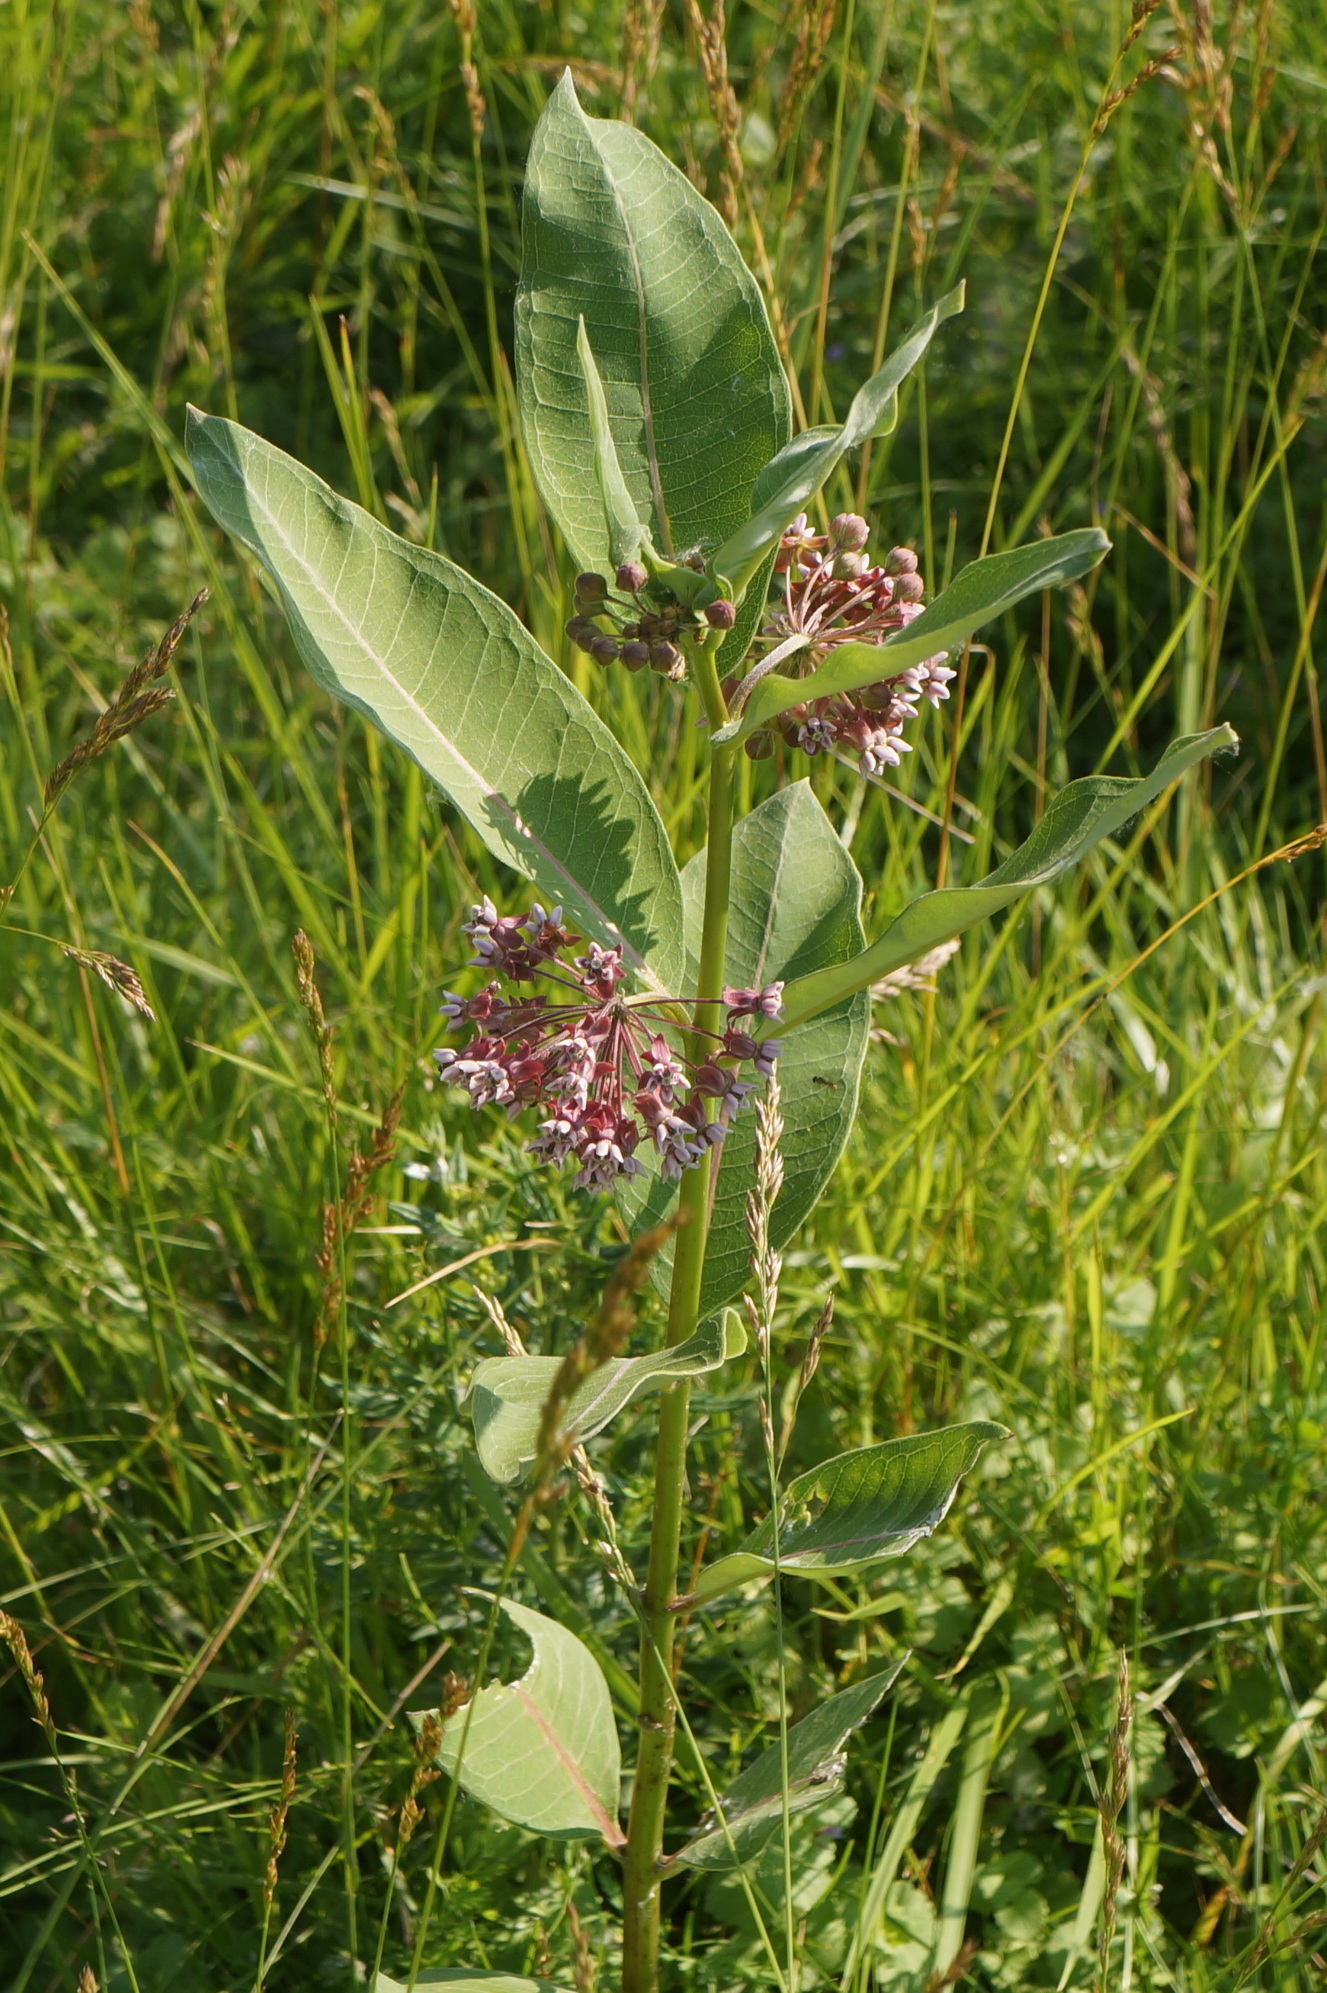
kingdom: Plantae
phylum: Tracheophyta
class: Magnoliopsida
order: Gentianales
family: Apocynaceae
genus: Asclepias
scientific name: Asclepias syriaca
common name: Common milkweed
